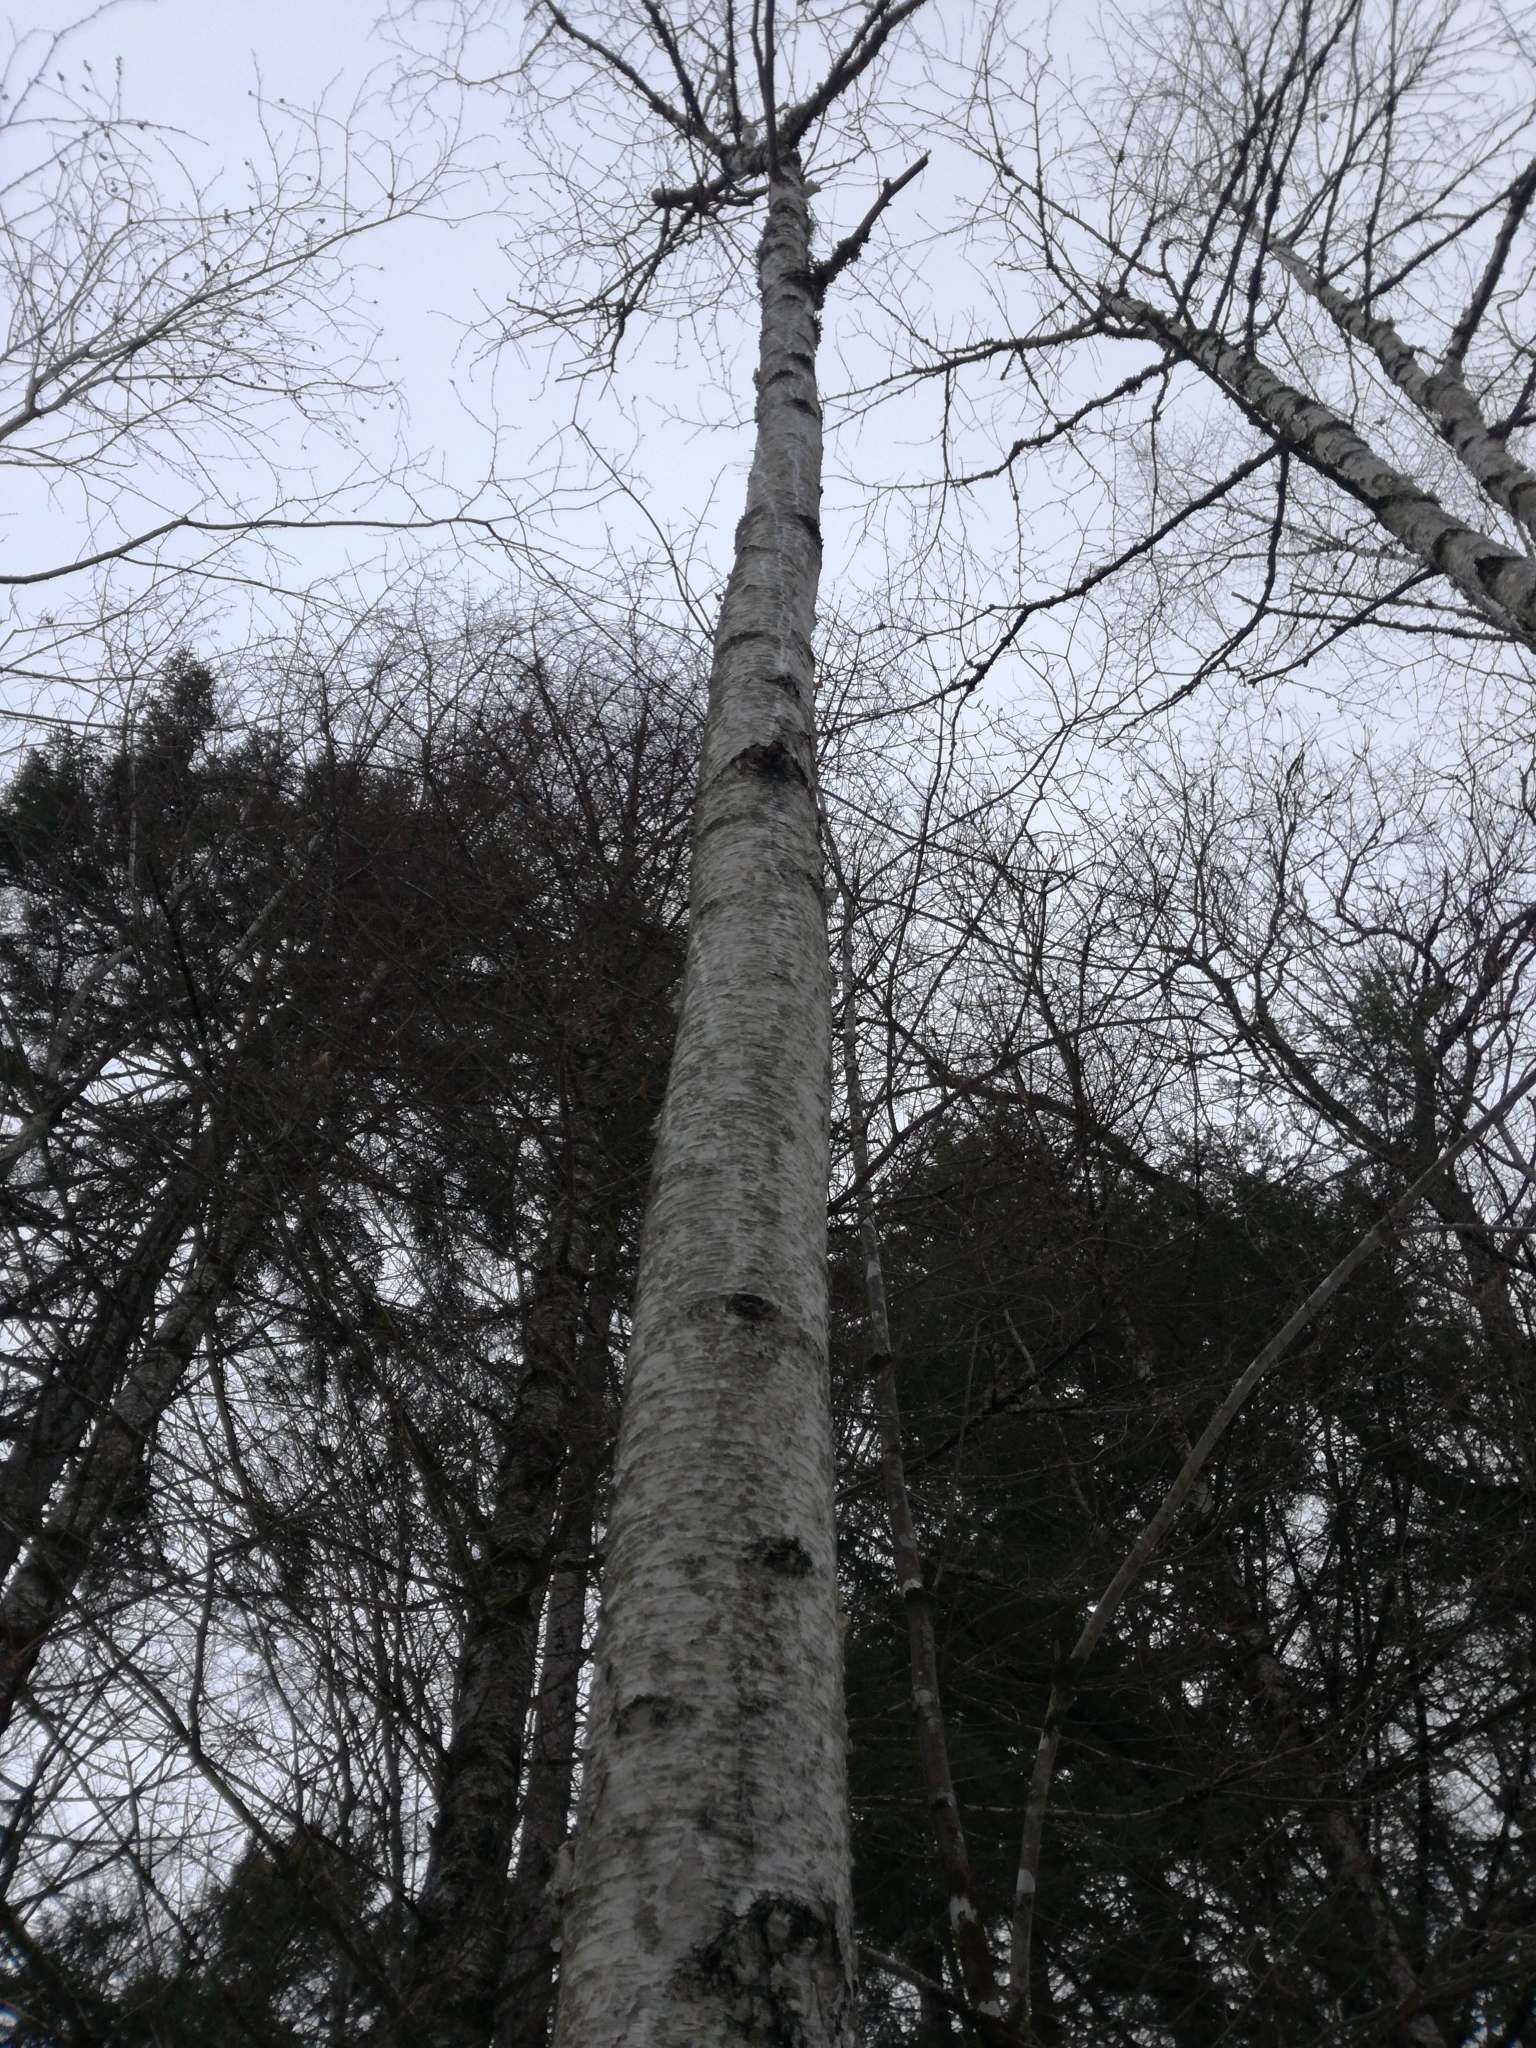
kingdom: Plantae
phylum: Tracheophyta
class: Magnoliopsida
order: Fagales
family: Betulaceae
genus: Betula
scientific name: Betula populifolia
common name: Fire birch
